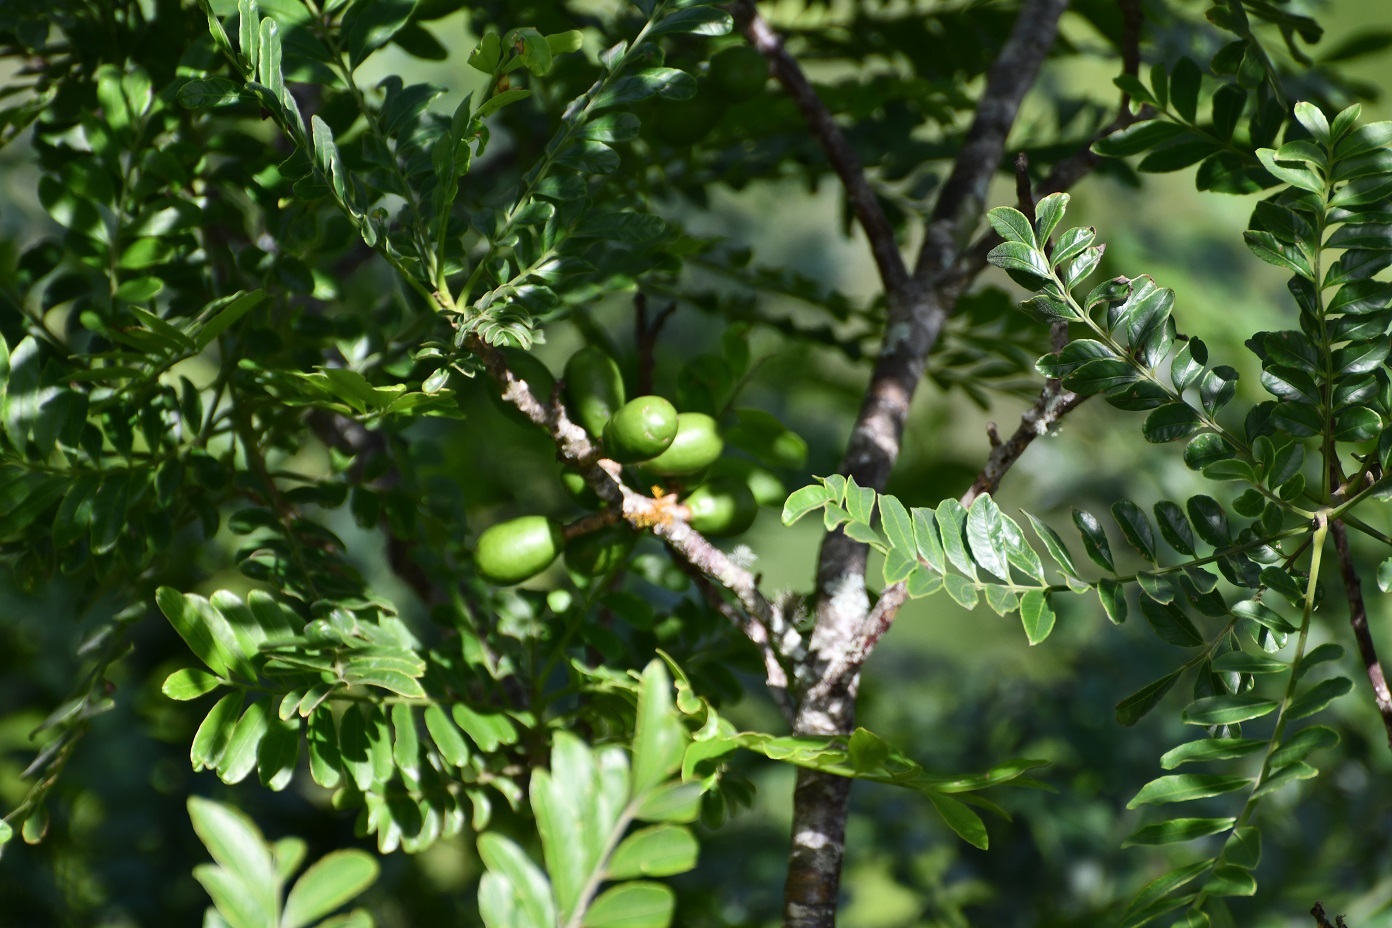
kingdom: Plantae
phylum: Tracheophyta
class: Magnoliopsida
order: Sapindales
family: Anacardiaceae
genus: Spondias
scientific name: Spondias purpurea
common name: Purple mombin
